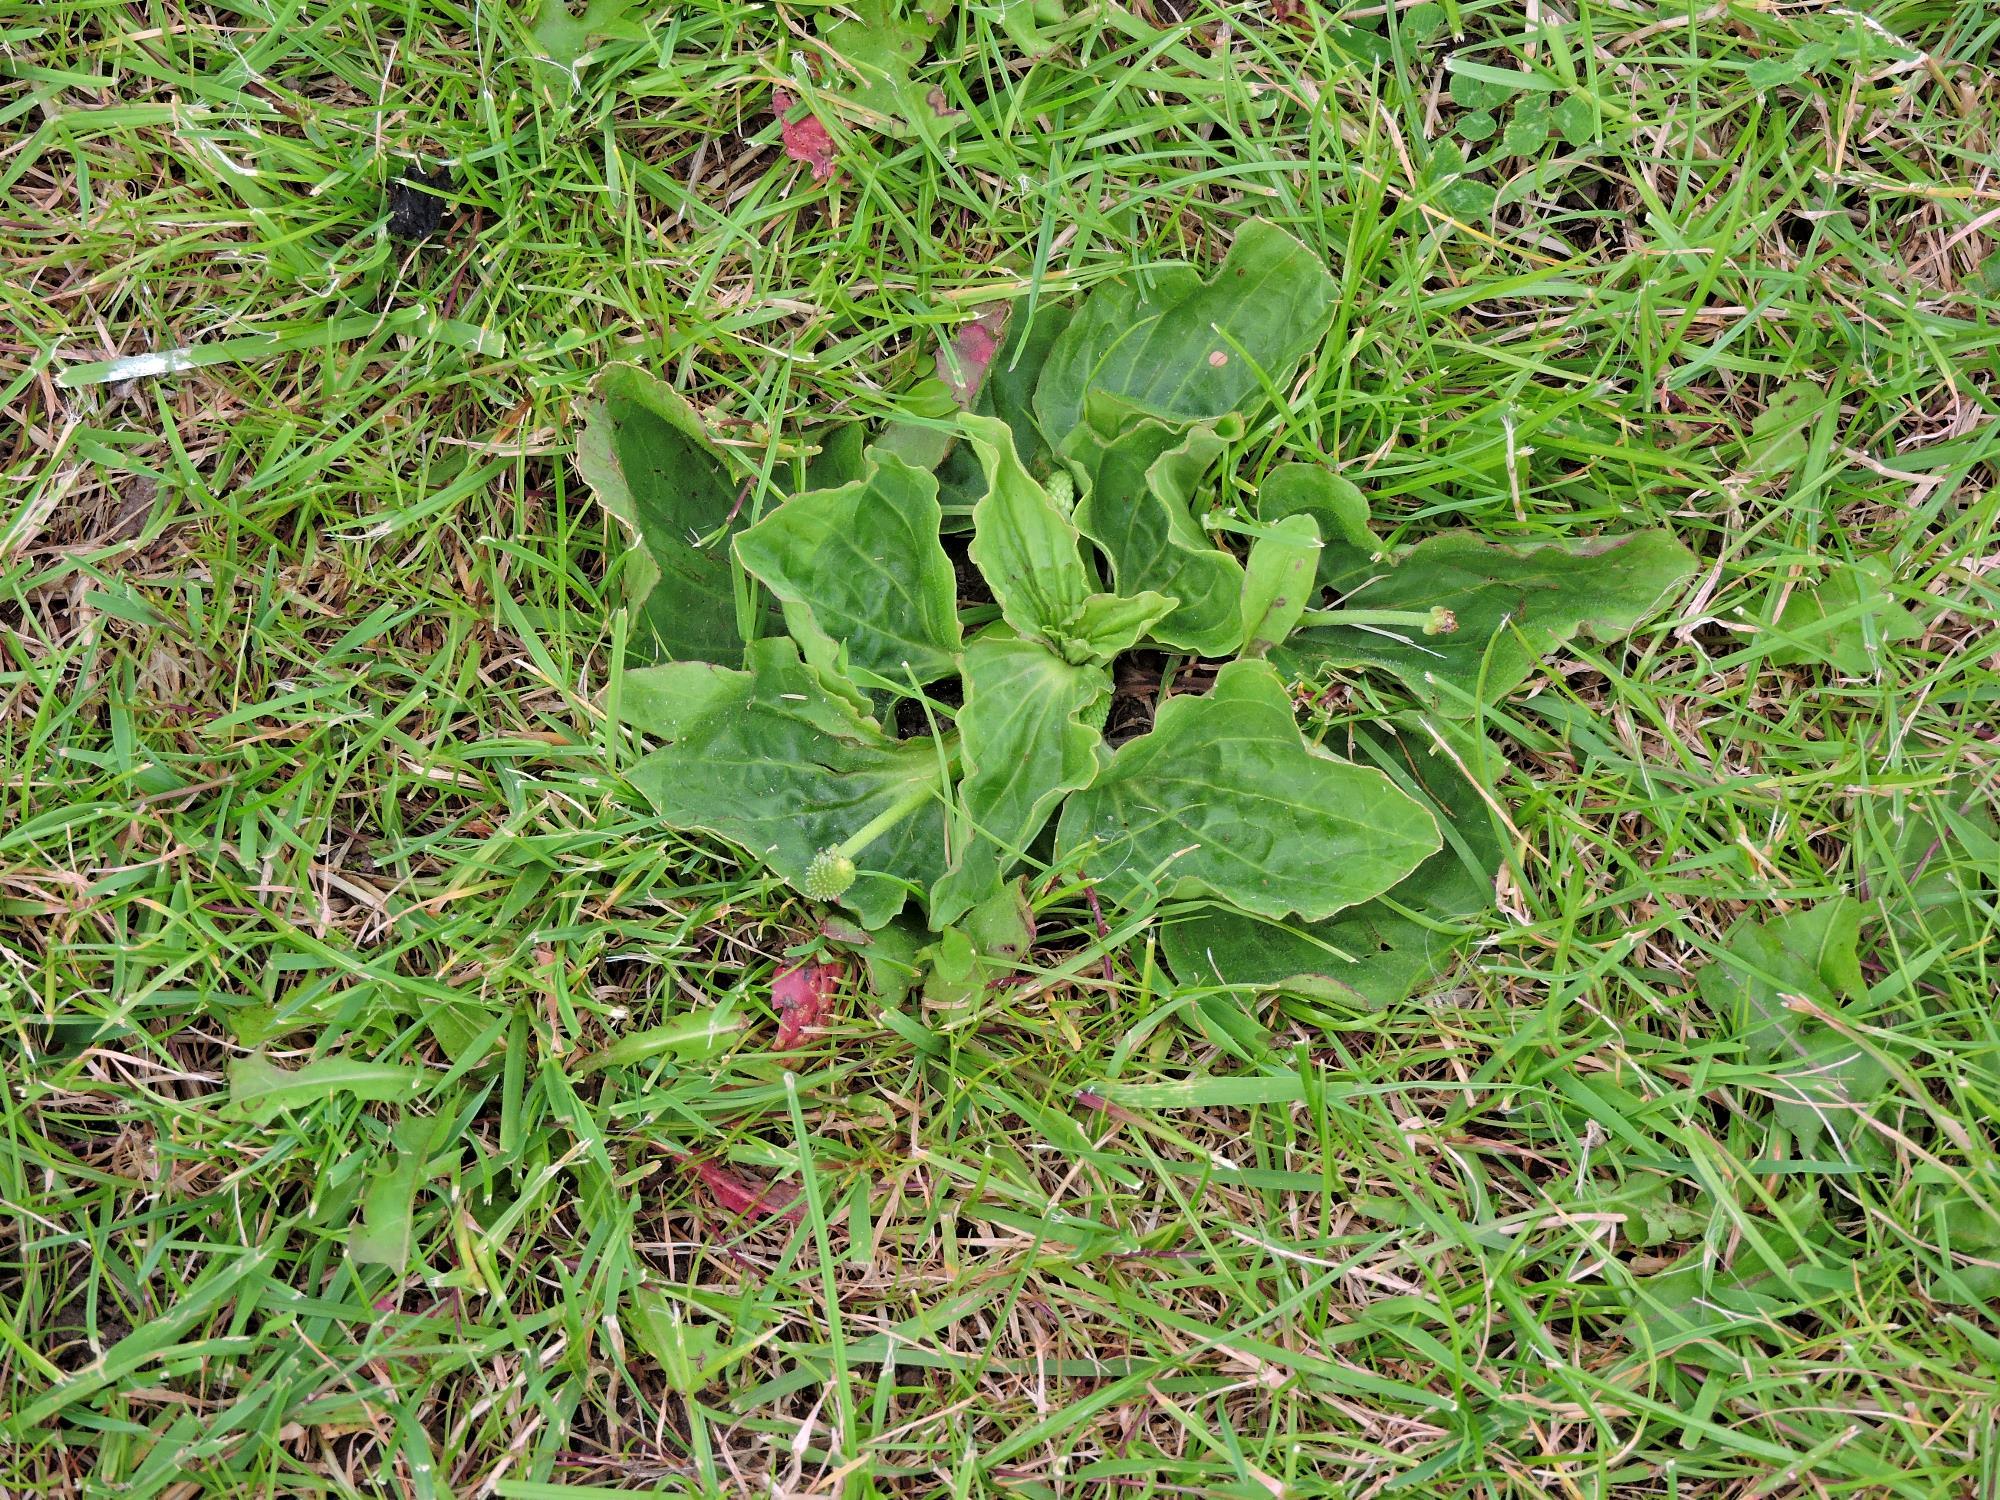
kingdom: Plantae
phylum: Tracheophyta
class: Magnoliopsida
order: Lamiales
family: Plantaginaceae
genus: Plantago
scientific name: Plantago major
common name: Common plantain
